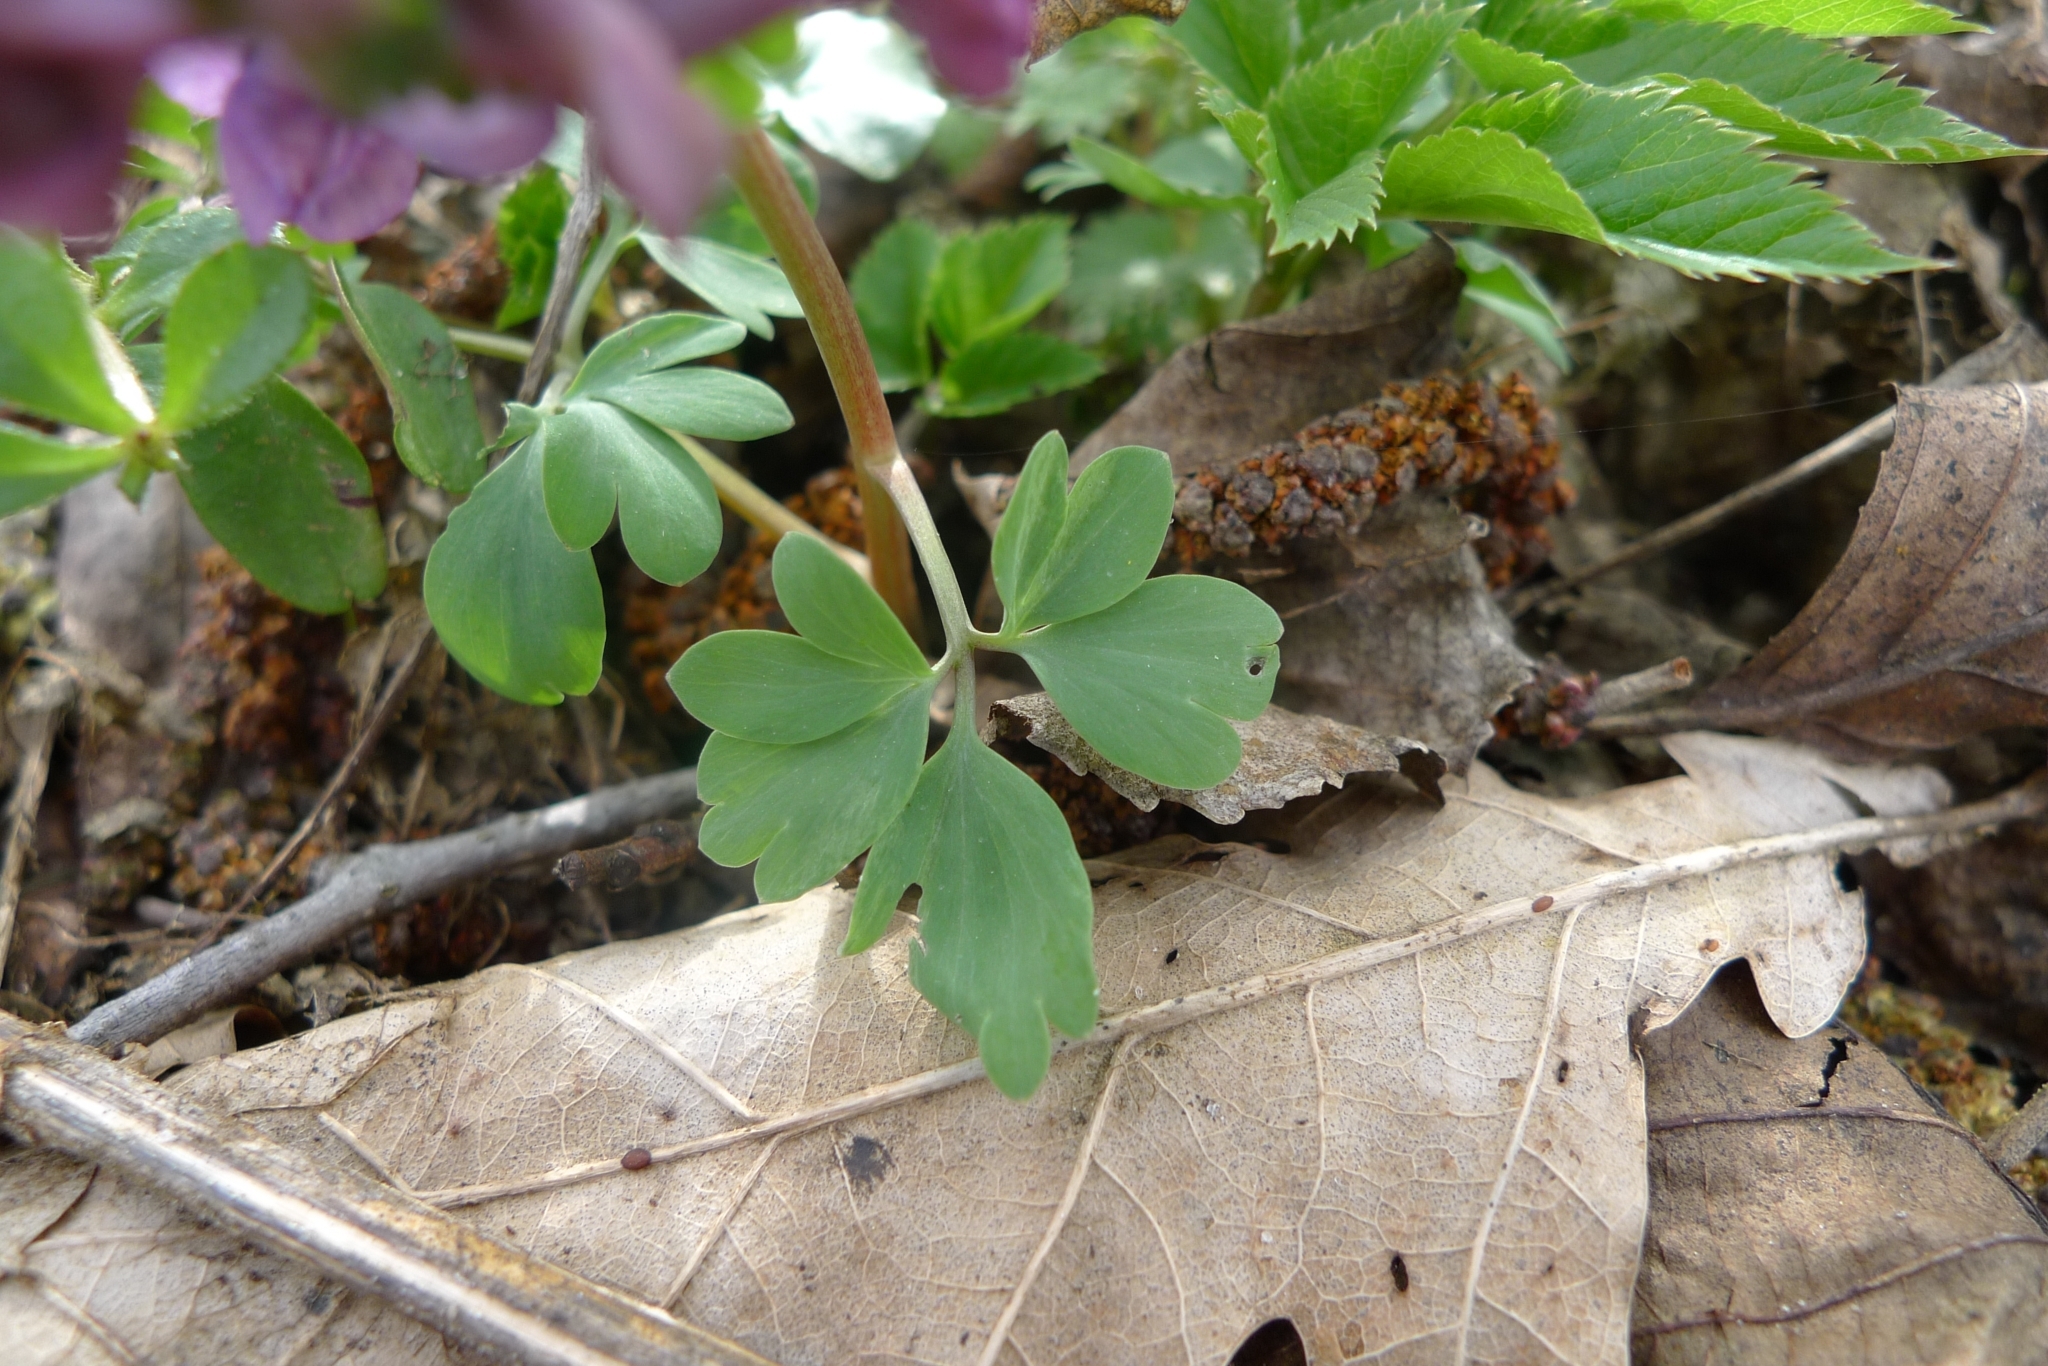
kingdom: Plantae
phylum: Tracheophyta
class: Magnoliopsida
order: Ranunculales
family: Papaveraceae
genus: Corydalis
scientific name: Corydalis solida
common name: Bird-in-a-bush
